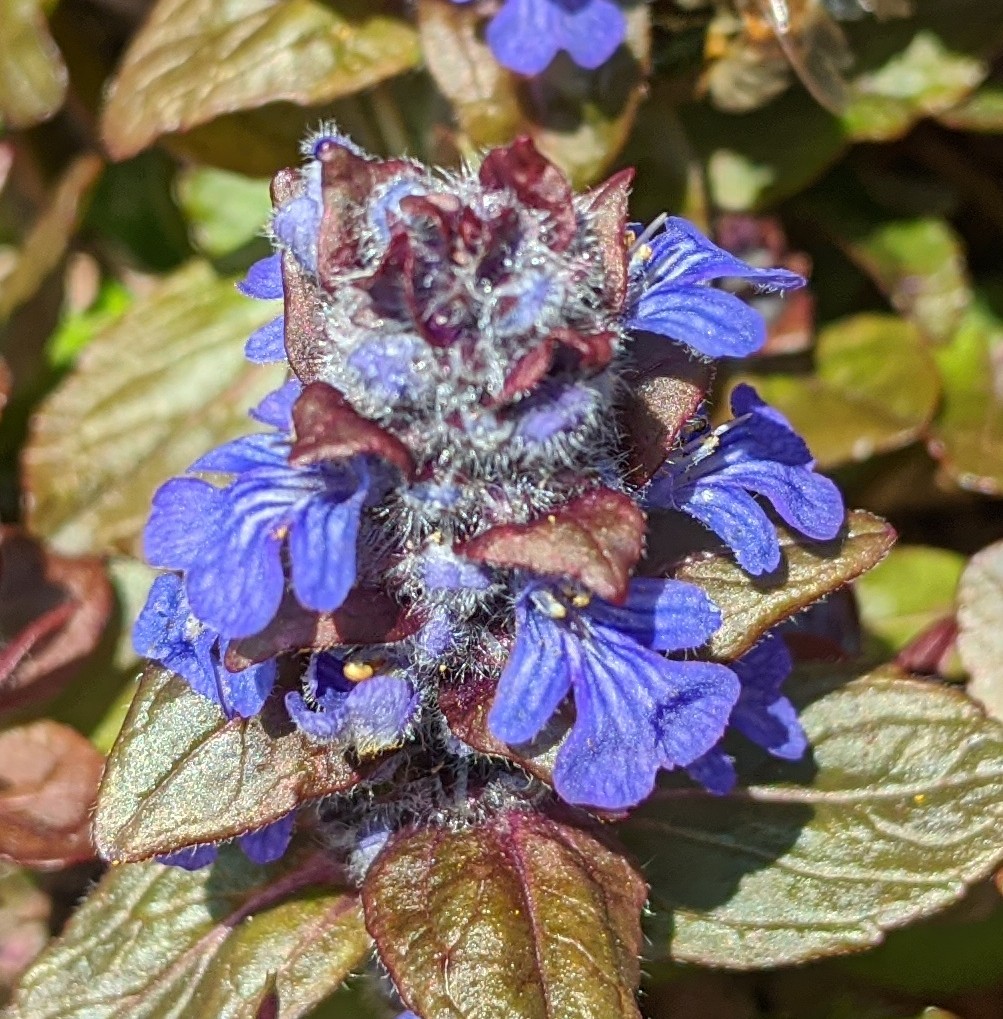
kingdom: Plantae
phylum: Tracheophyta
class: Magnoliopsida
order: Lamiales
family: Lamiaceae
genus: Ajuga
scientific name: Ajuga reptans
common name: Bugle
